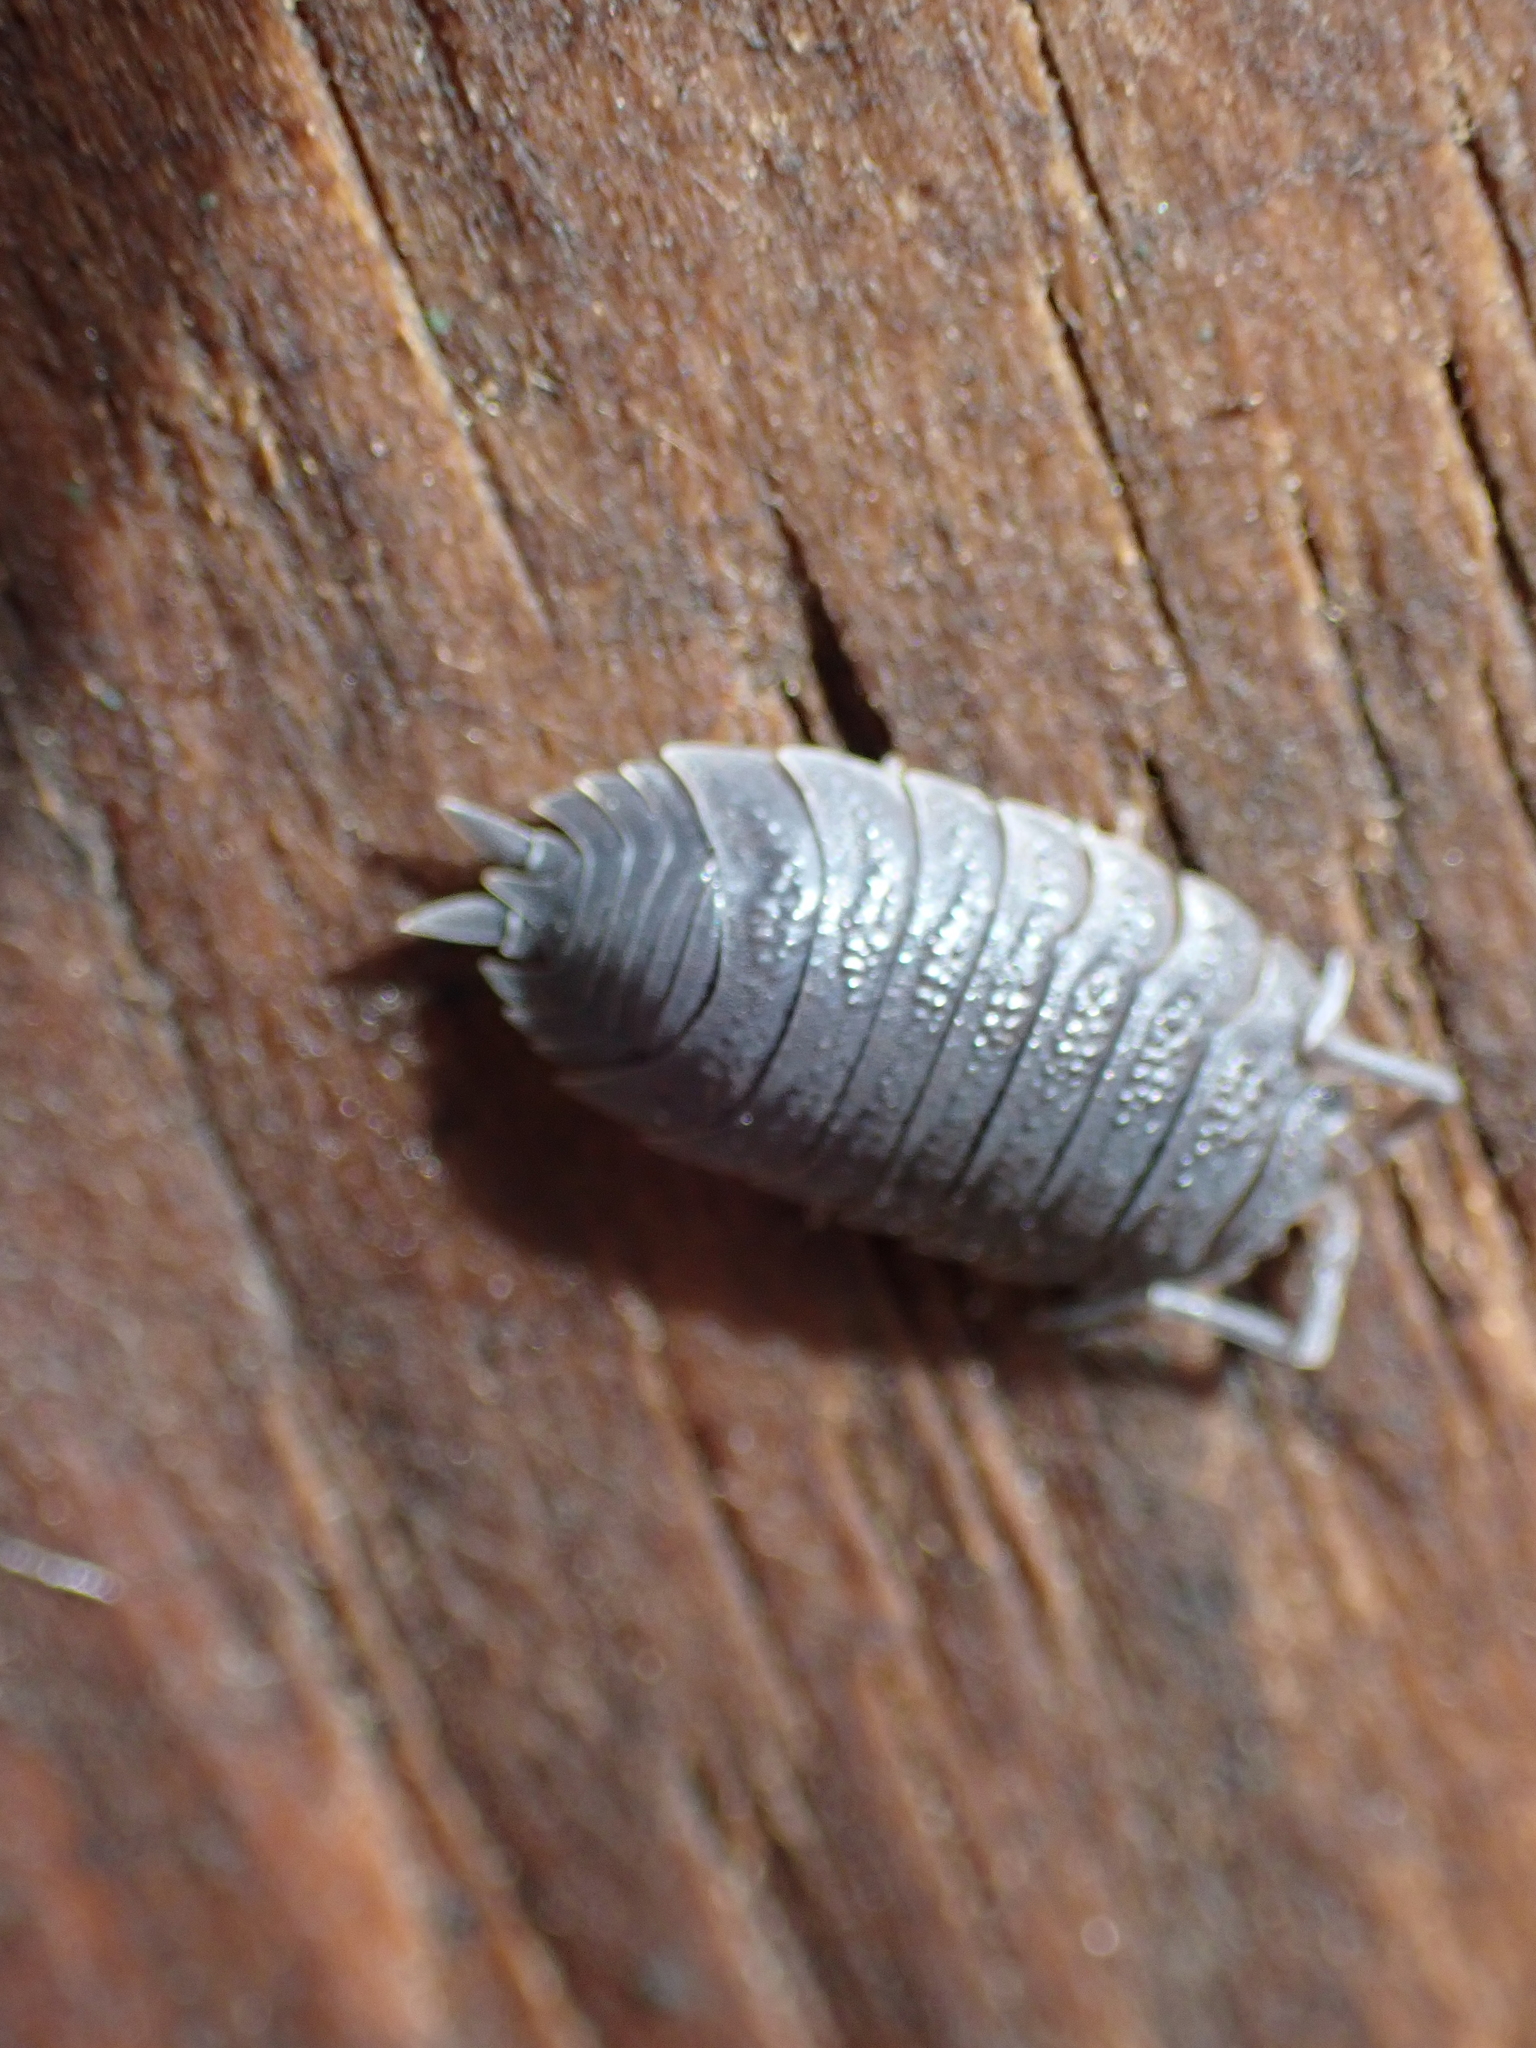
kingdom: Animalia
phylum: Arthropoda
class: Malacostraca
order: Isopoda
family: Porcellionidae
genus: Porcellio
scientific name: Porcellio scaber
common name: Common rough woodlouse
